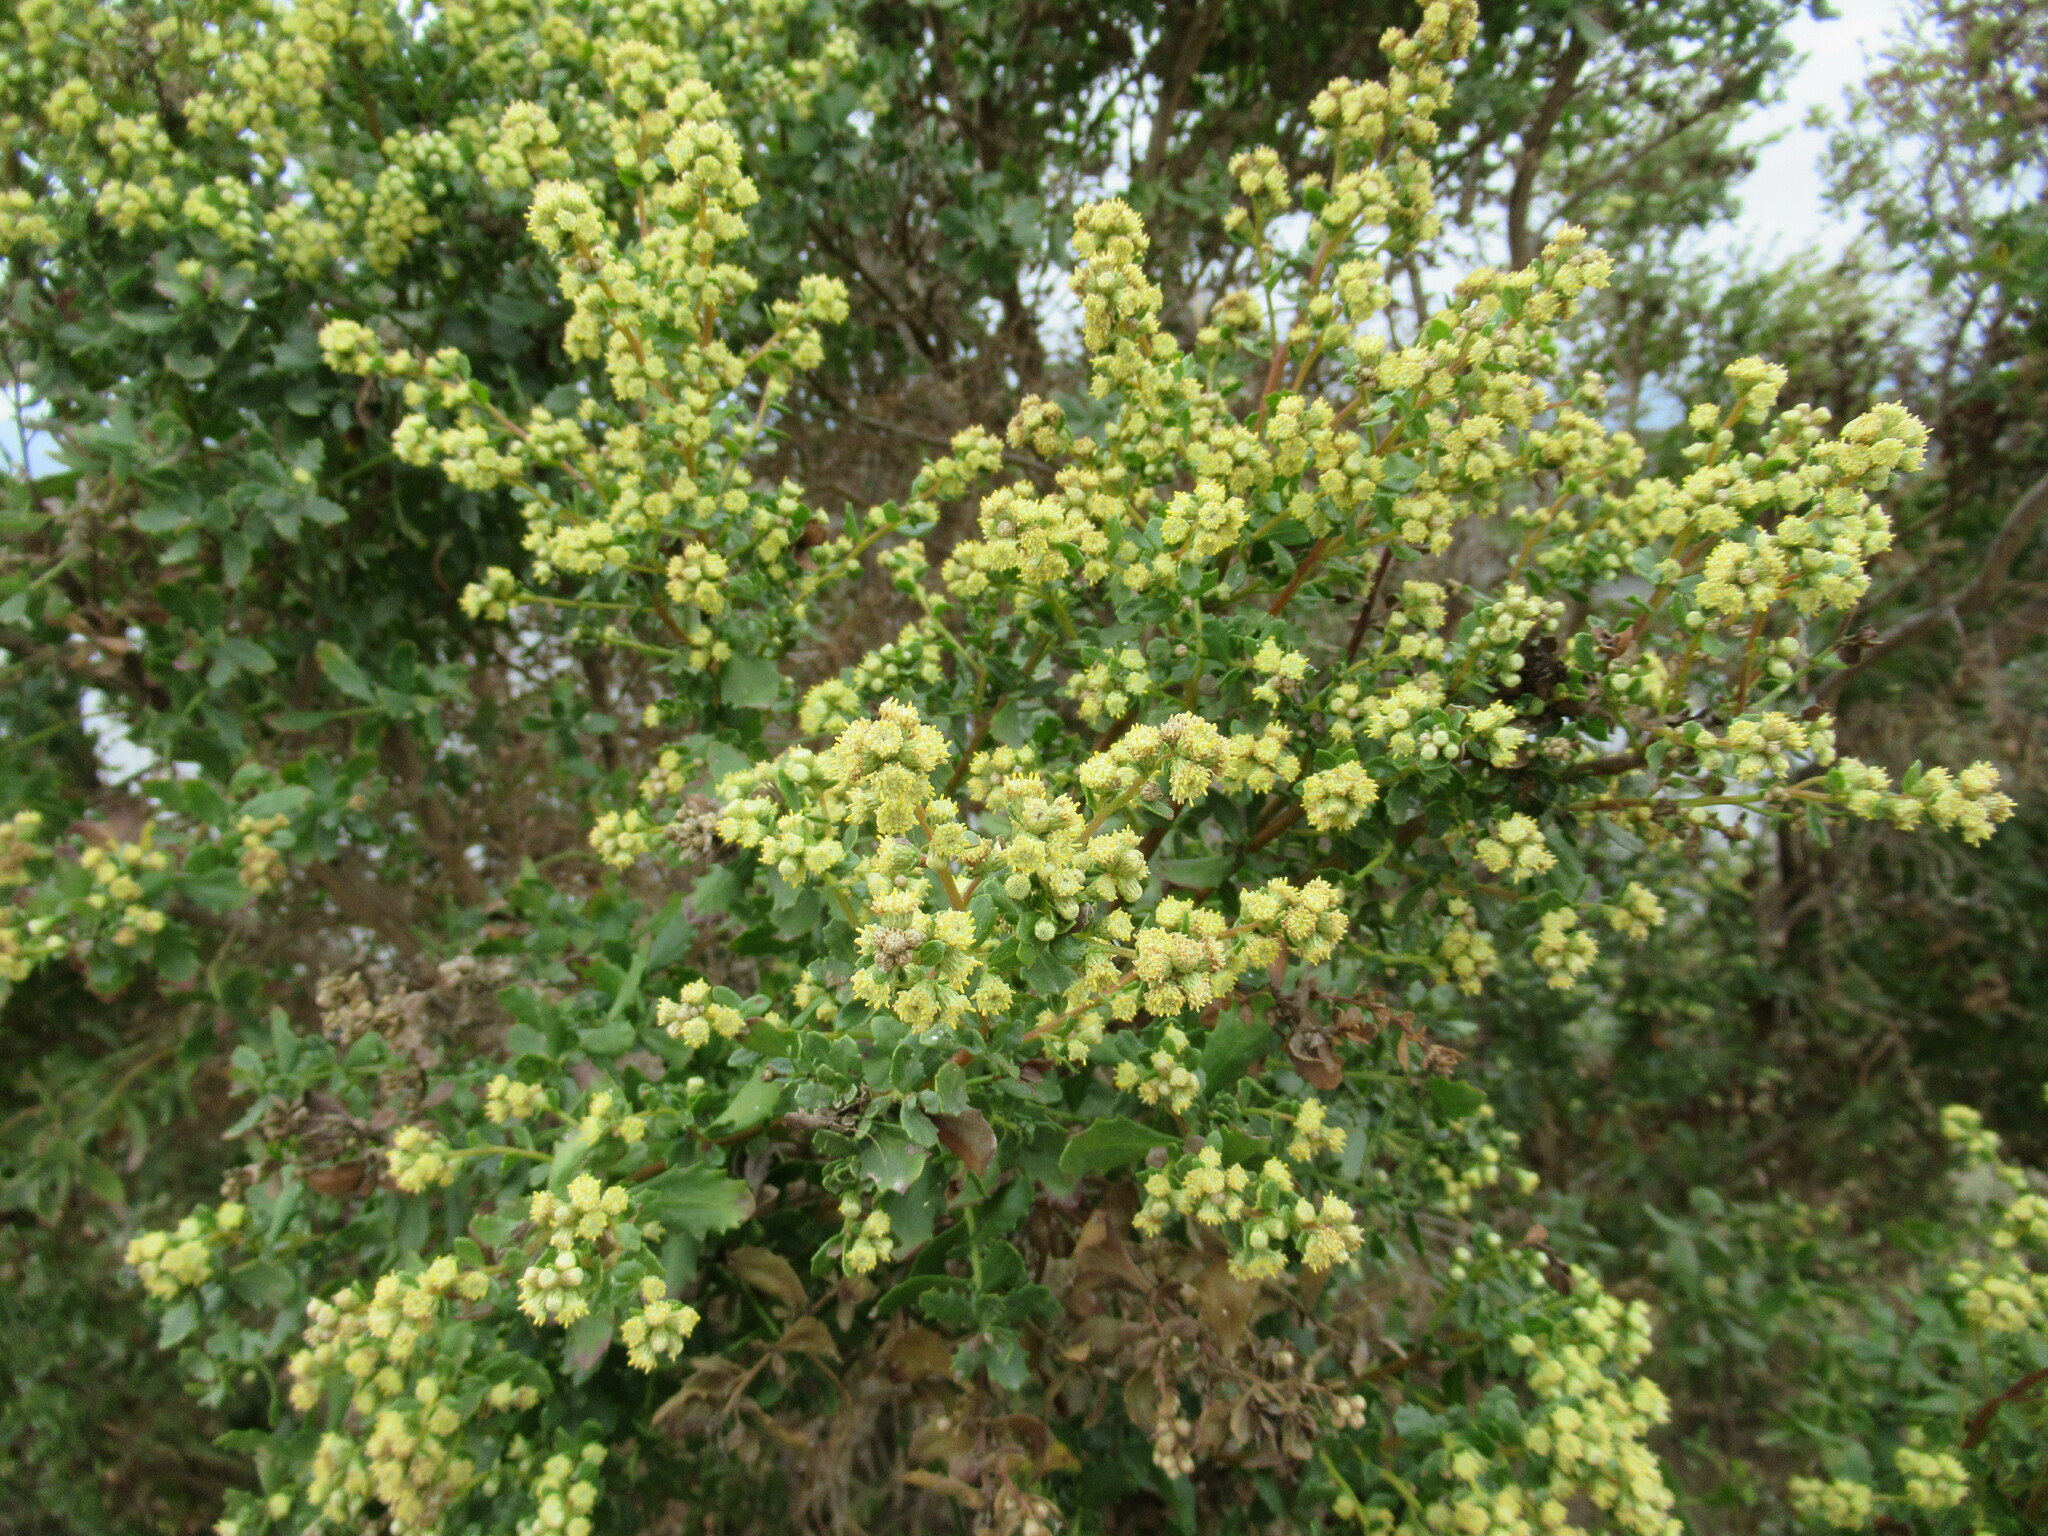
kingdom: Plantae
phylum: Tracheophyta
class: Magnoliopsida
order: Asterales
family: Asteraceae
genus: Baccharis
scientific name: Baccharis pilularis
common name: Coyotebrush
